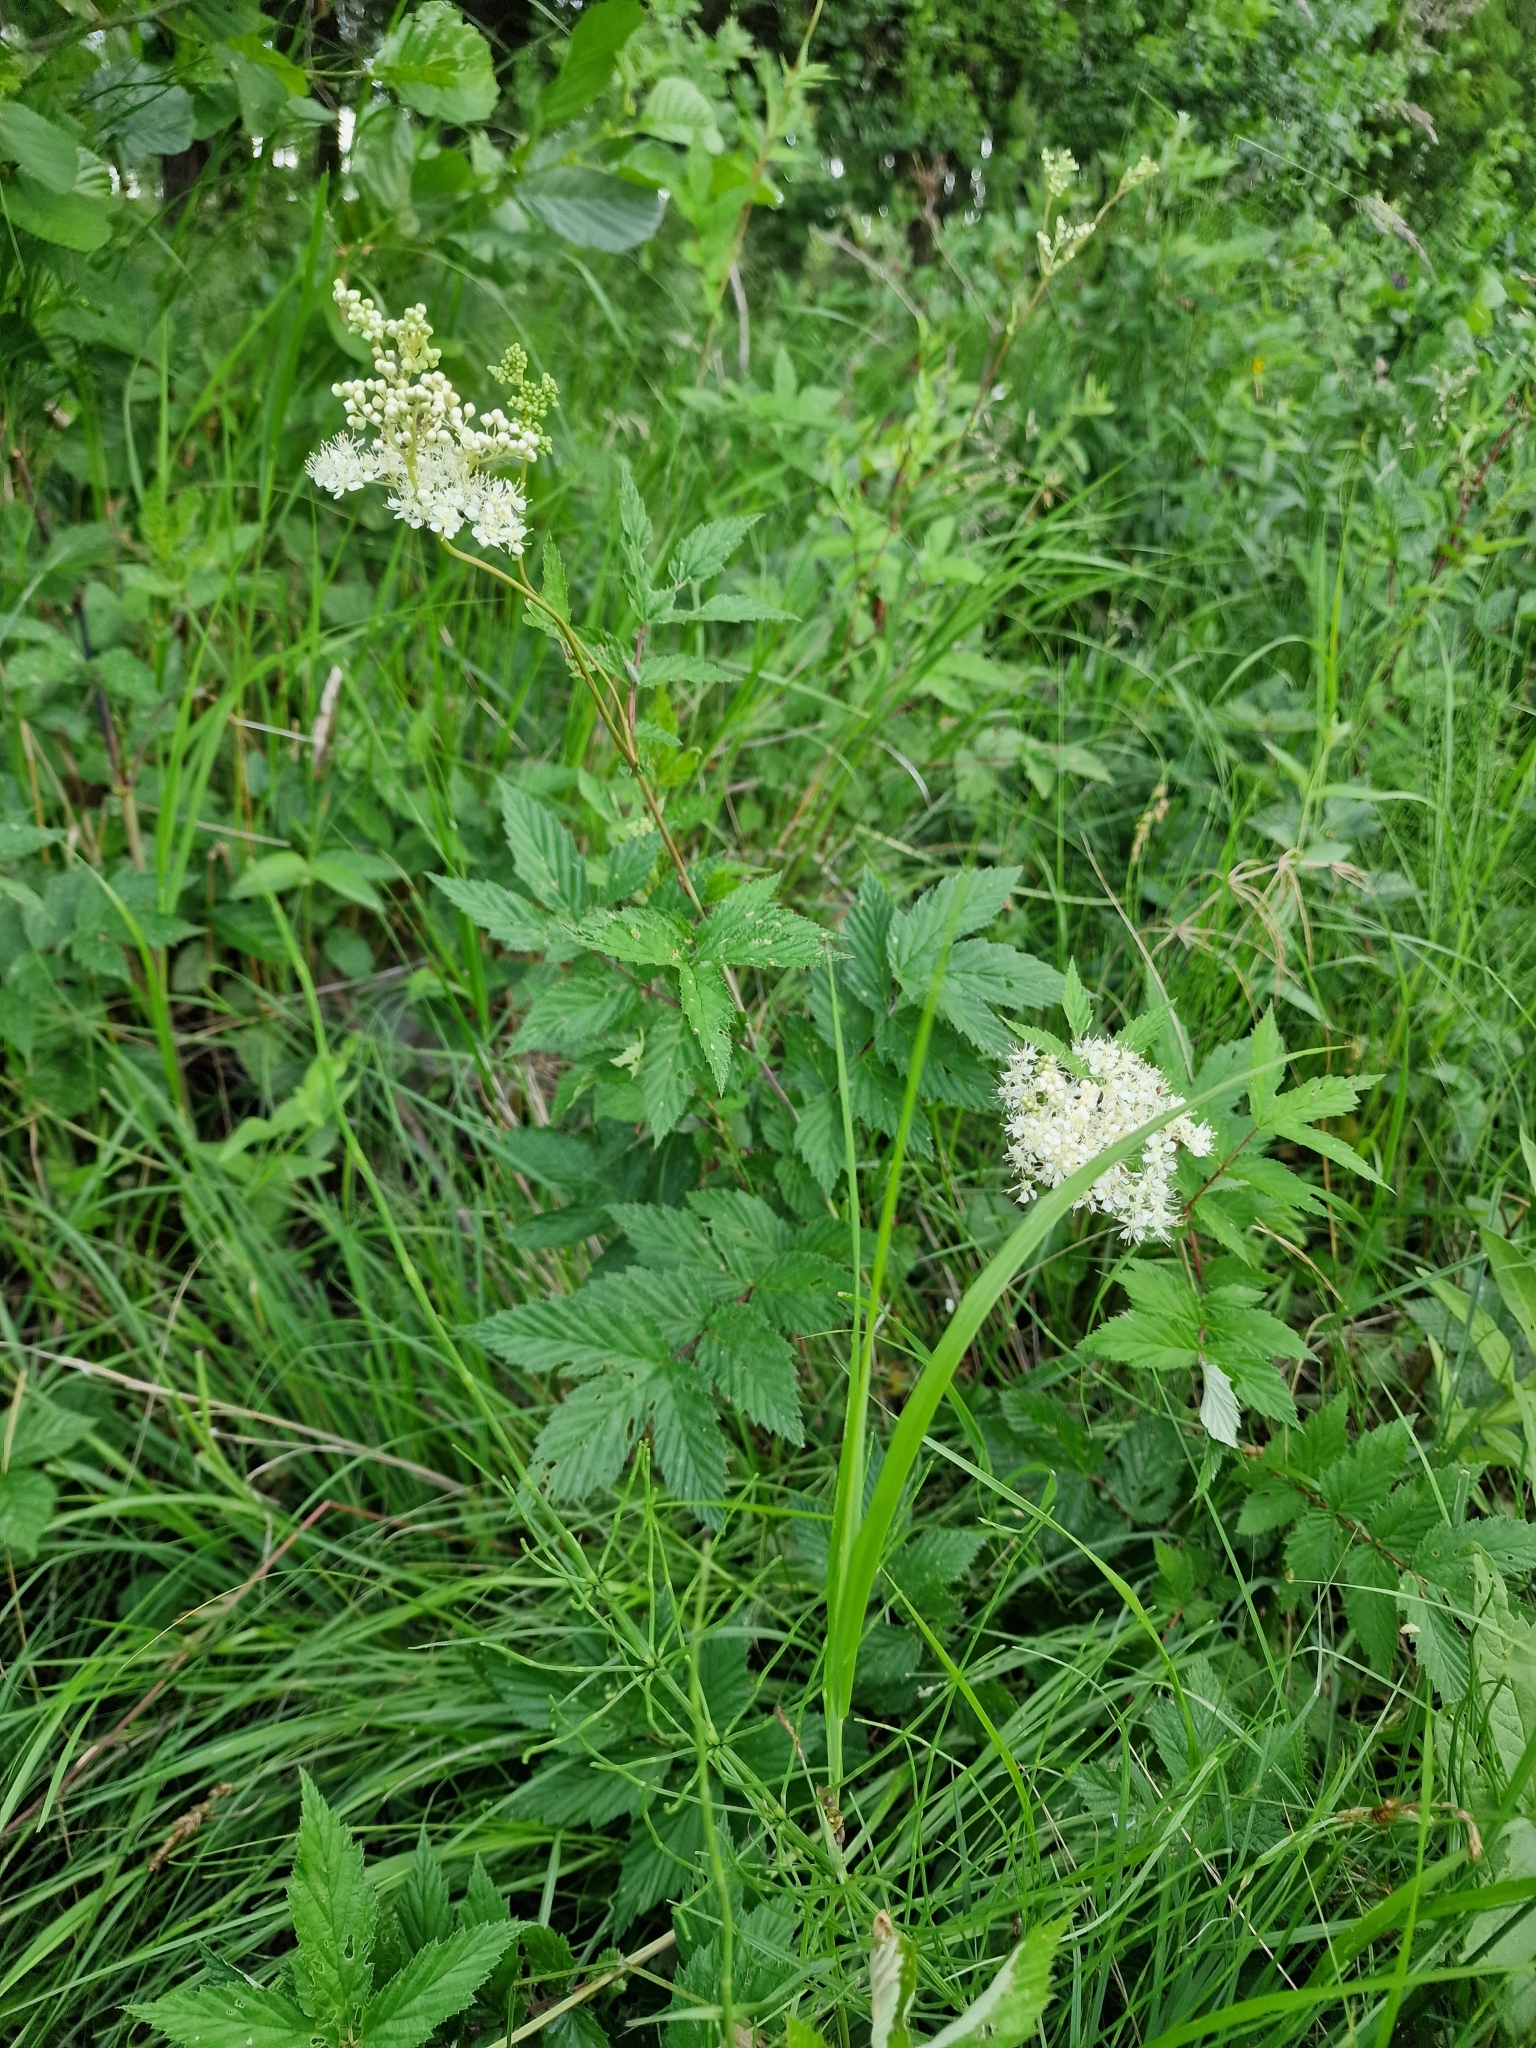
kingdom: Plantae
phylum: Tracheophyta
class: Magnoliopsida
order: Rosales
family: Rosaceae
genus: Filipendula
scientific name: Filipendula ulmaria
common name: Meadowsweet
